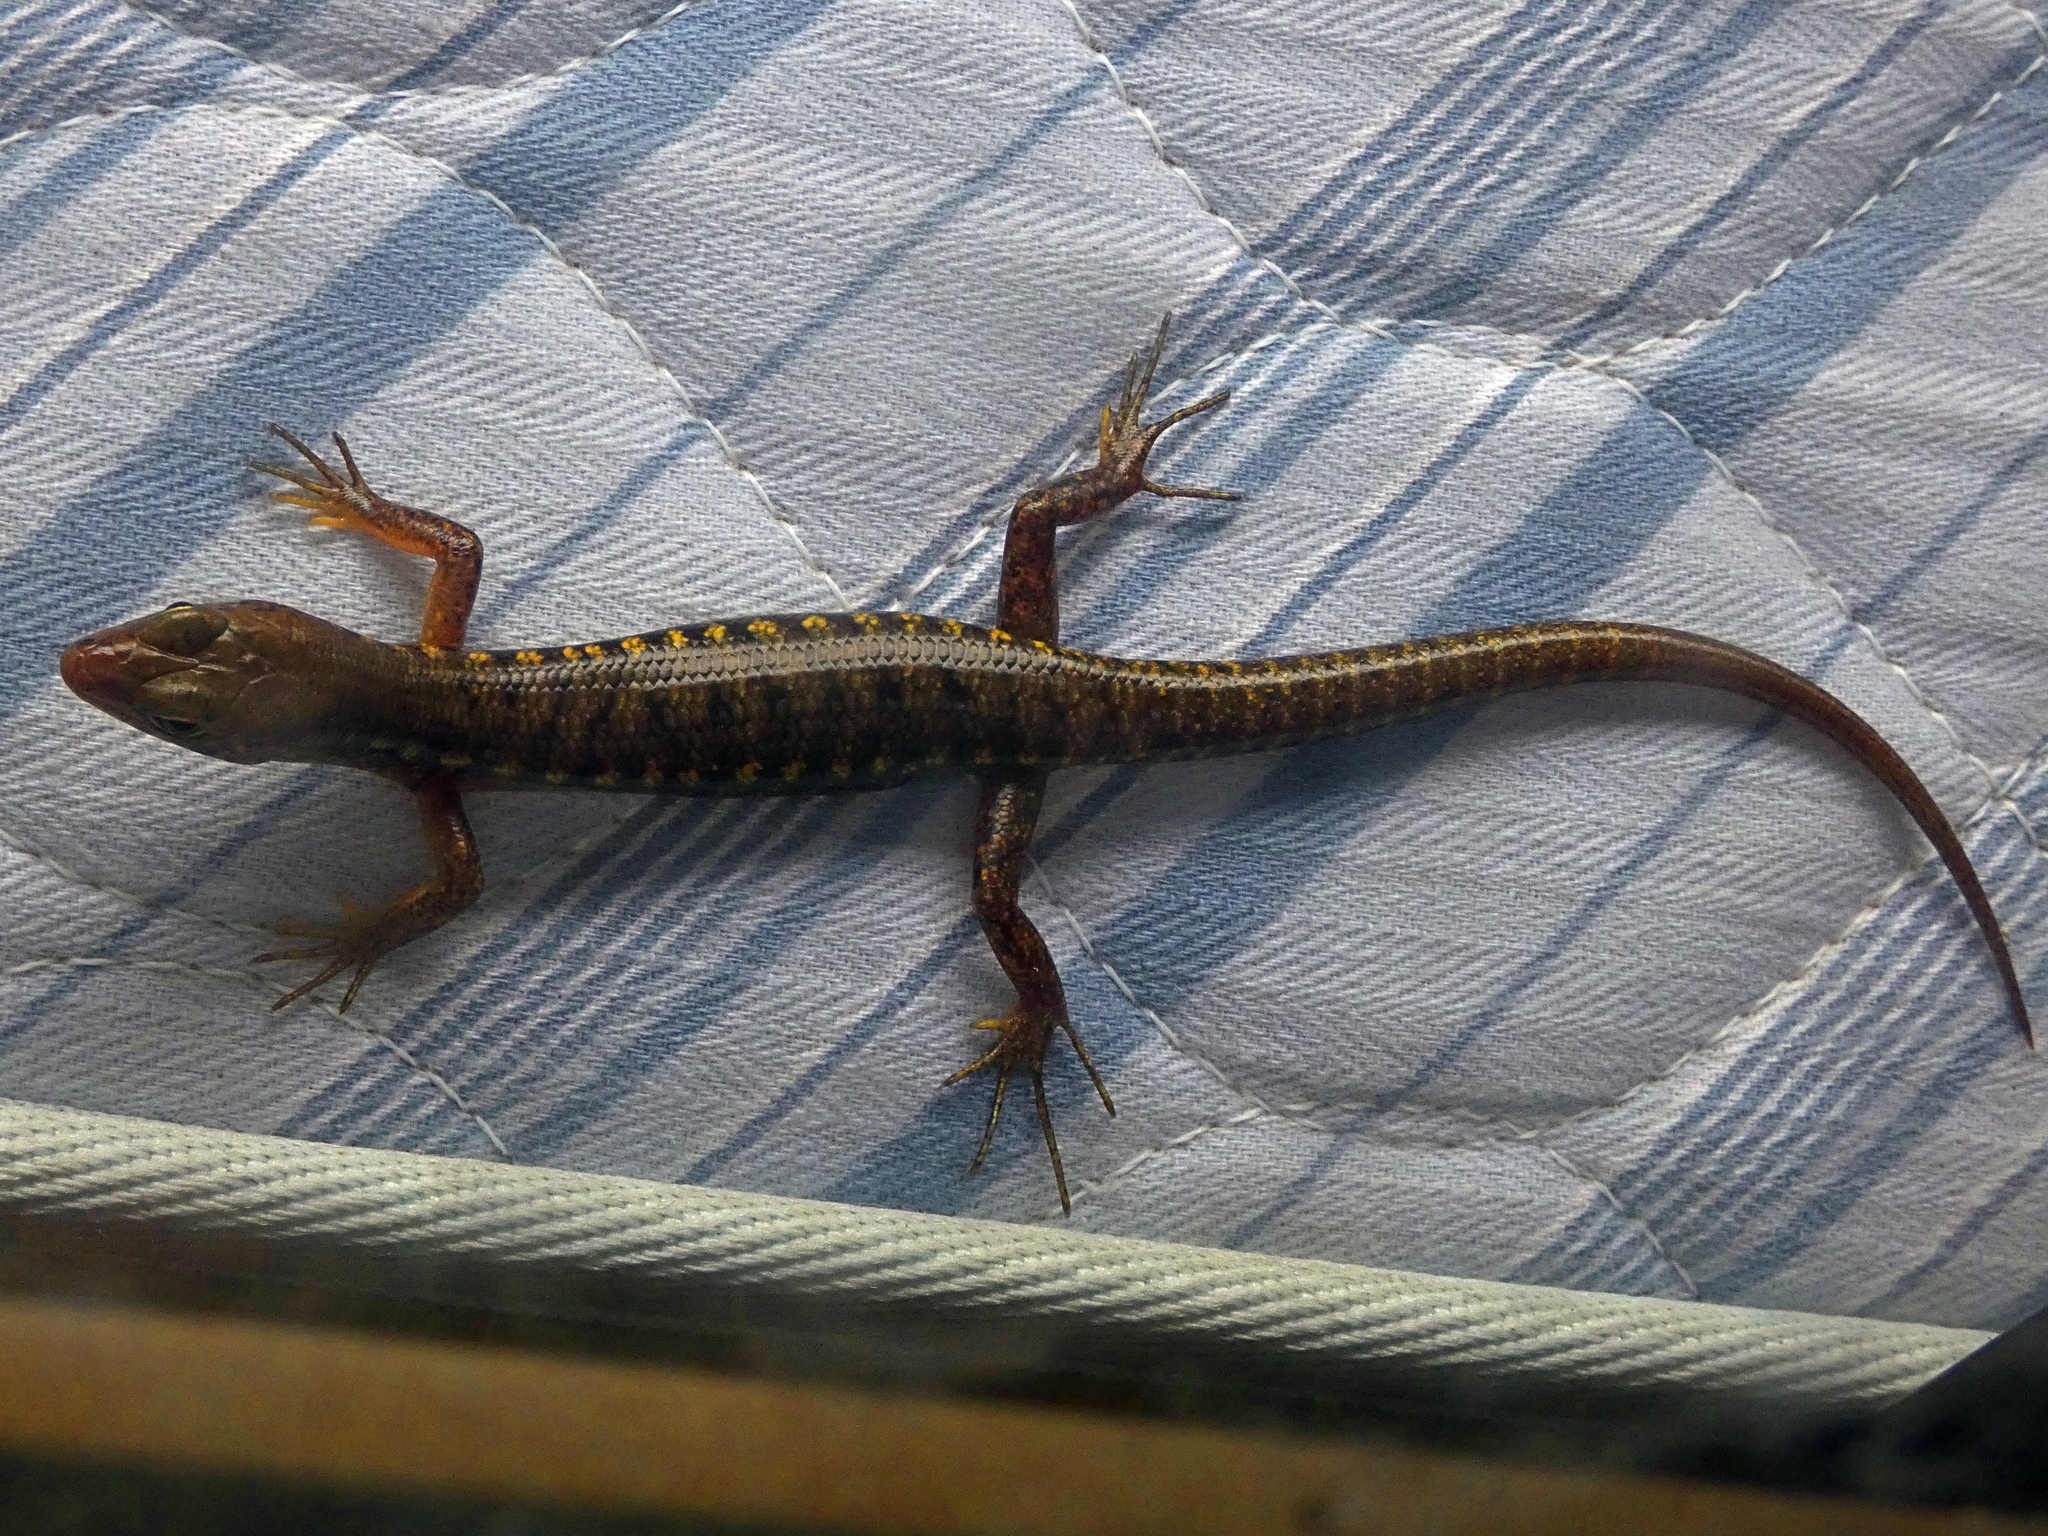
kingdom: Animalia
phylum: Chordata
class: Squamata
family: Scincidae
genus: Concinnia
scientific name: Concinnia tigrina
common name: Rainforest water-skink
